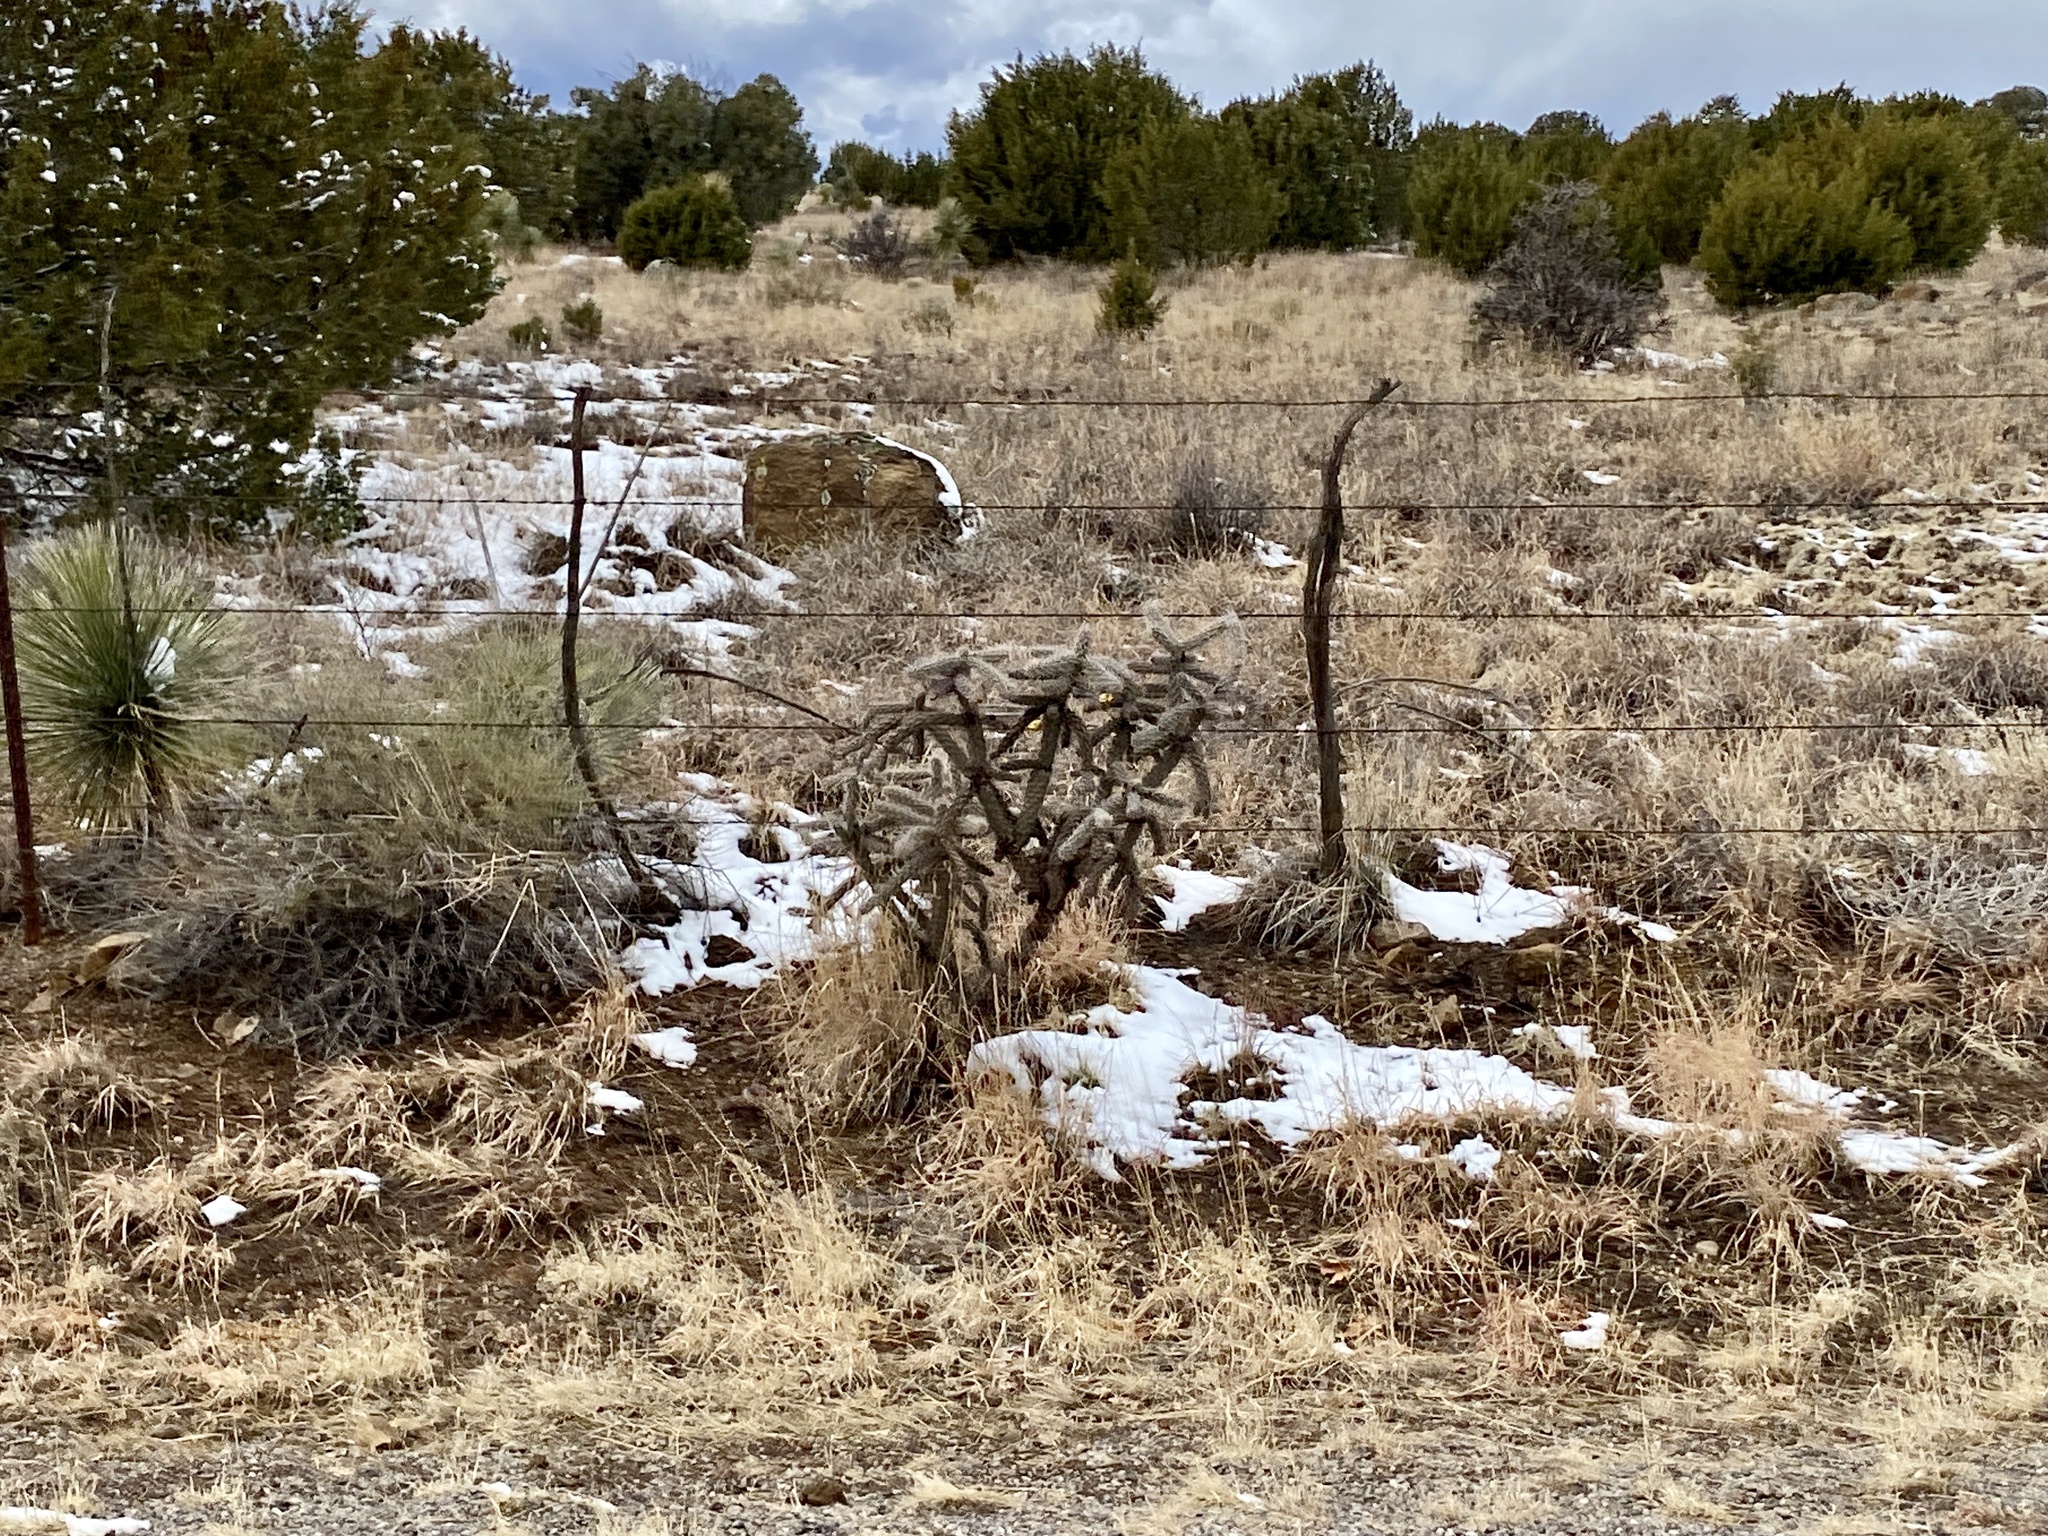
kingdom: Plantae
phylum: Tracheophyta
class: Magnoliopsida
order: Caryophyllales
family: Cactaceae
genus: Cylindropuntia
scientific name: Cylindropuntia imbricata
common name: Candelabrum cactus
